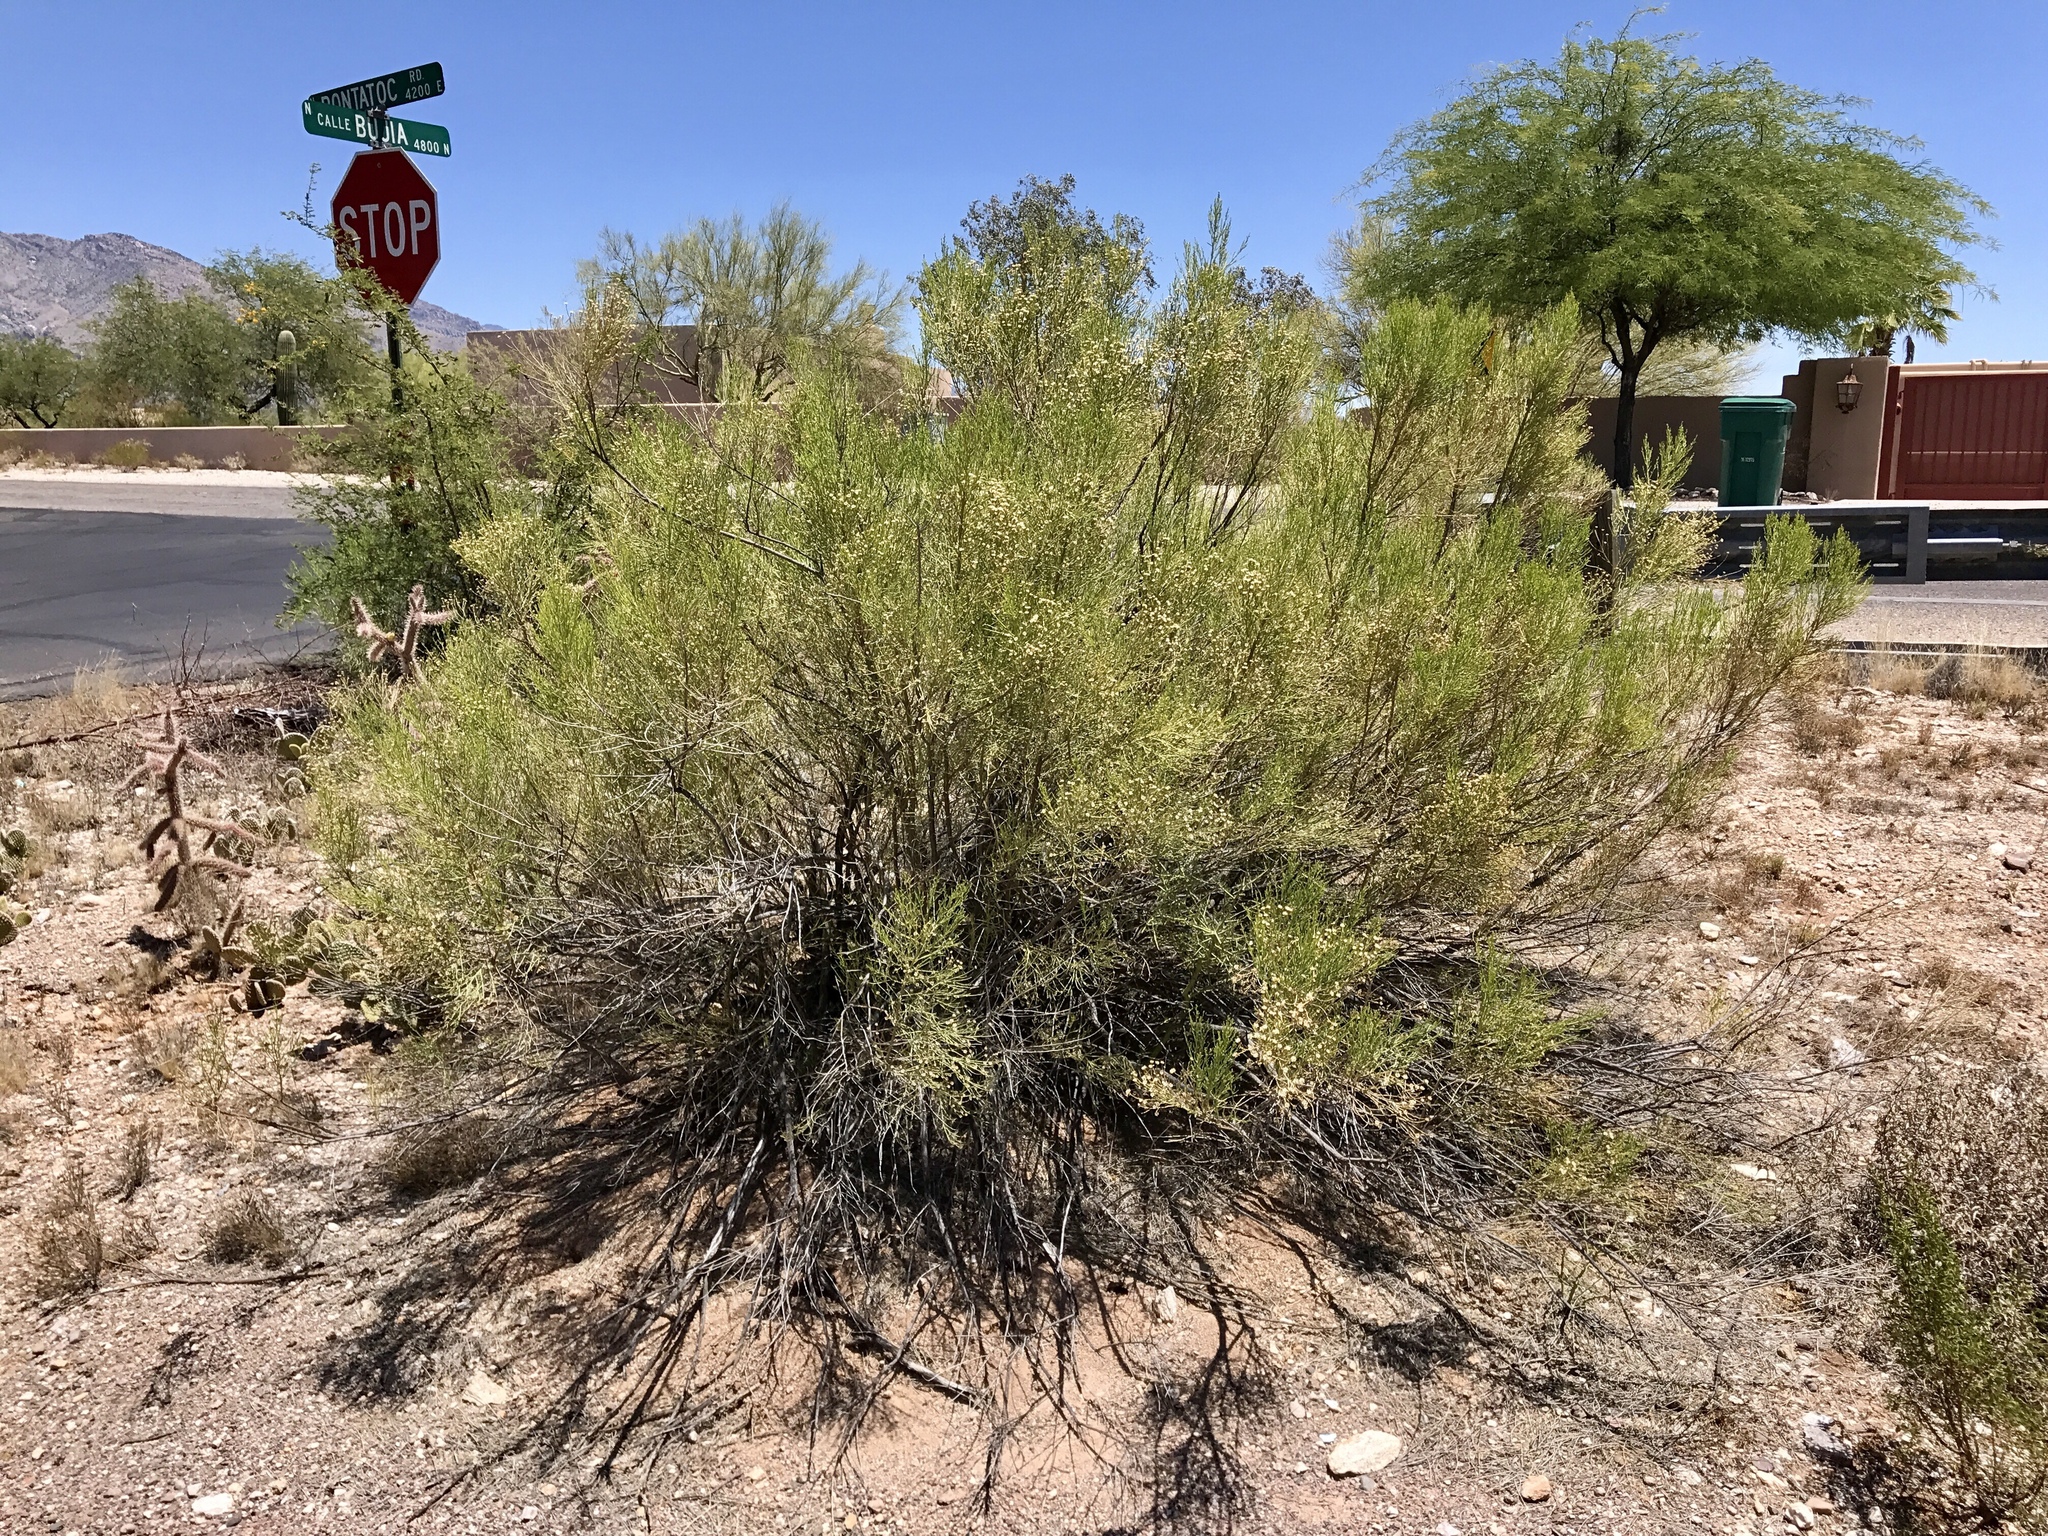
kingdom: Plantae
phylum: Tracheophyta
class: Magnoliopsida
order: Asterales
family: Asteraceae
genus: Baccharis
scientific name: Baccharis sarothroides
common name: Desert-broom
